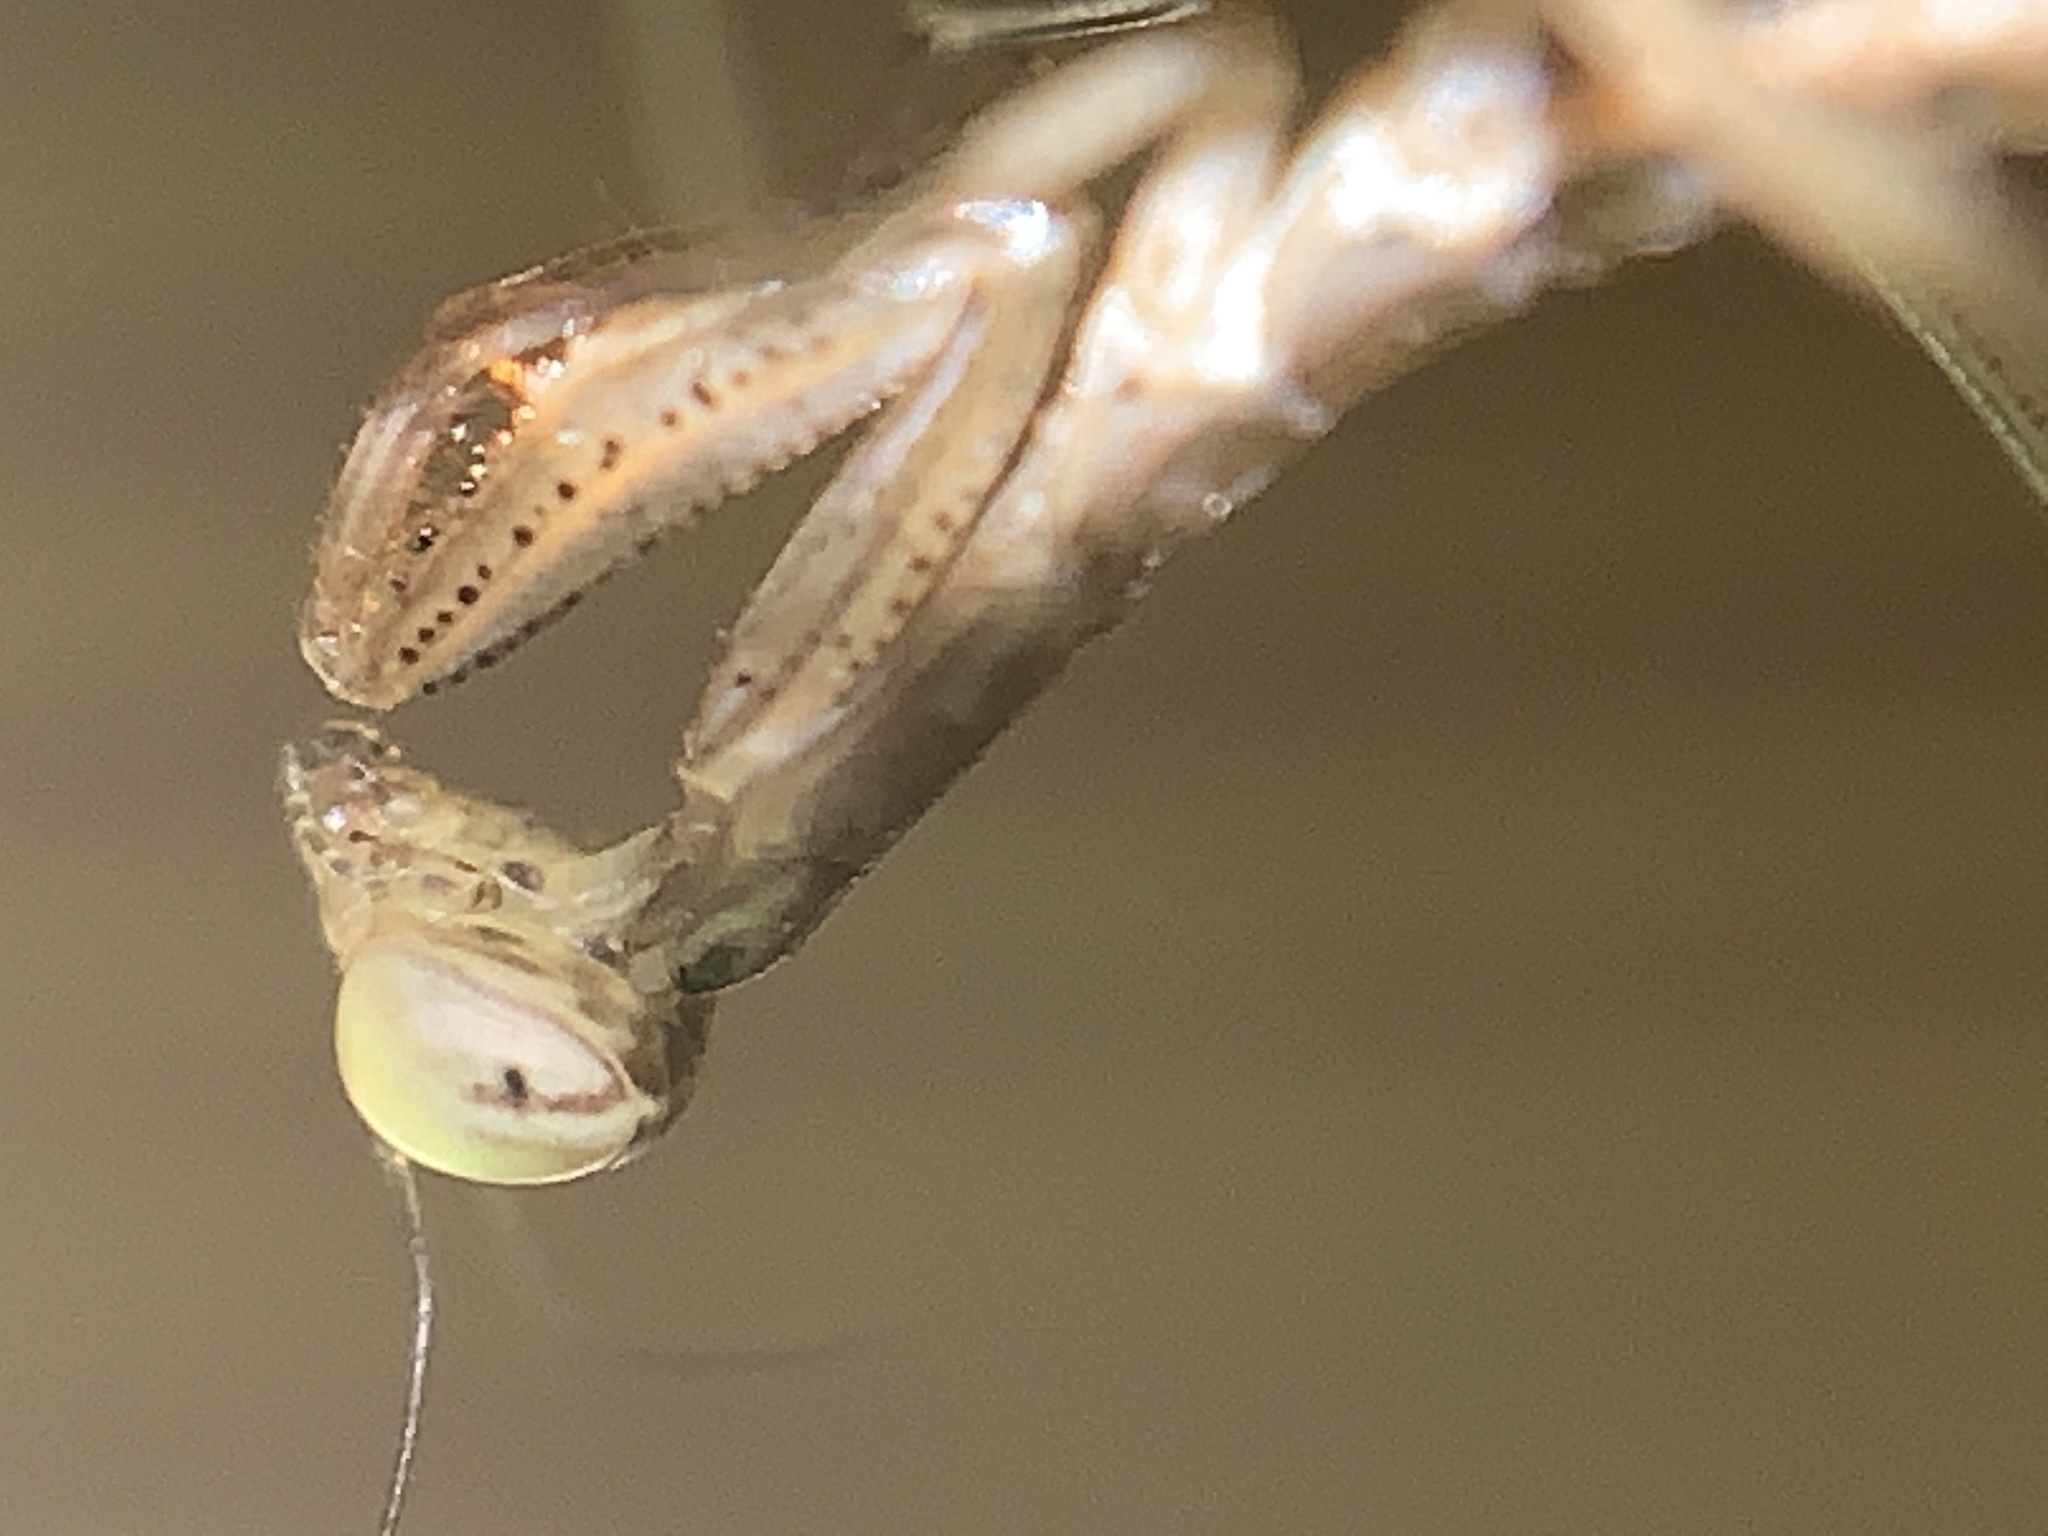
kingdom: Animalia
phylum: Arthropoda
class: Insecta
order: Mantodea
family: Mantidae
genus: Mantis
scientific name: Mantis religiosa
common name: Praying mantis
